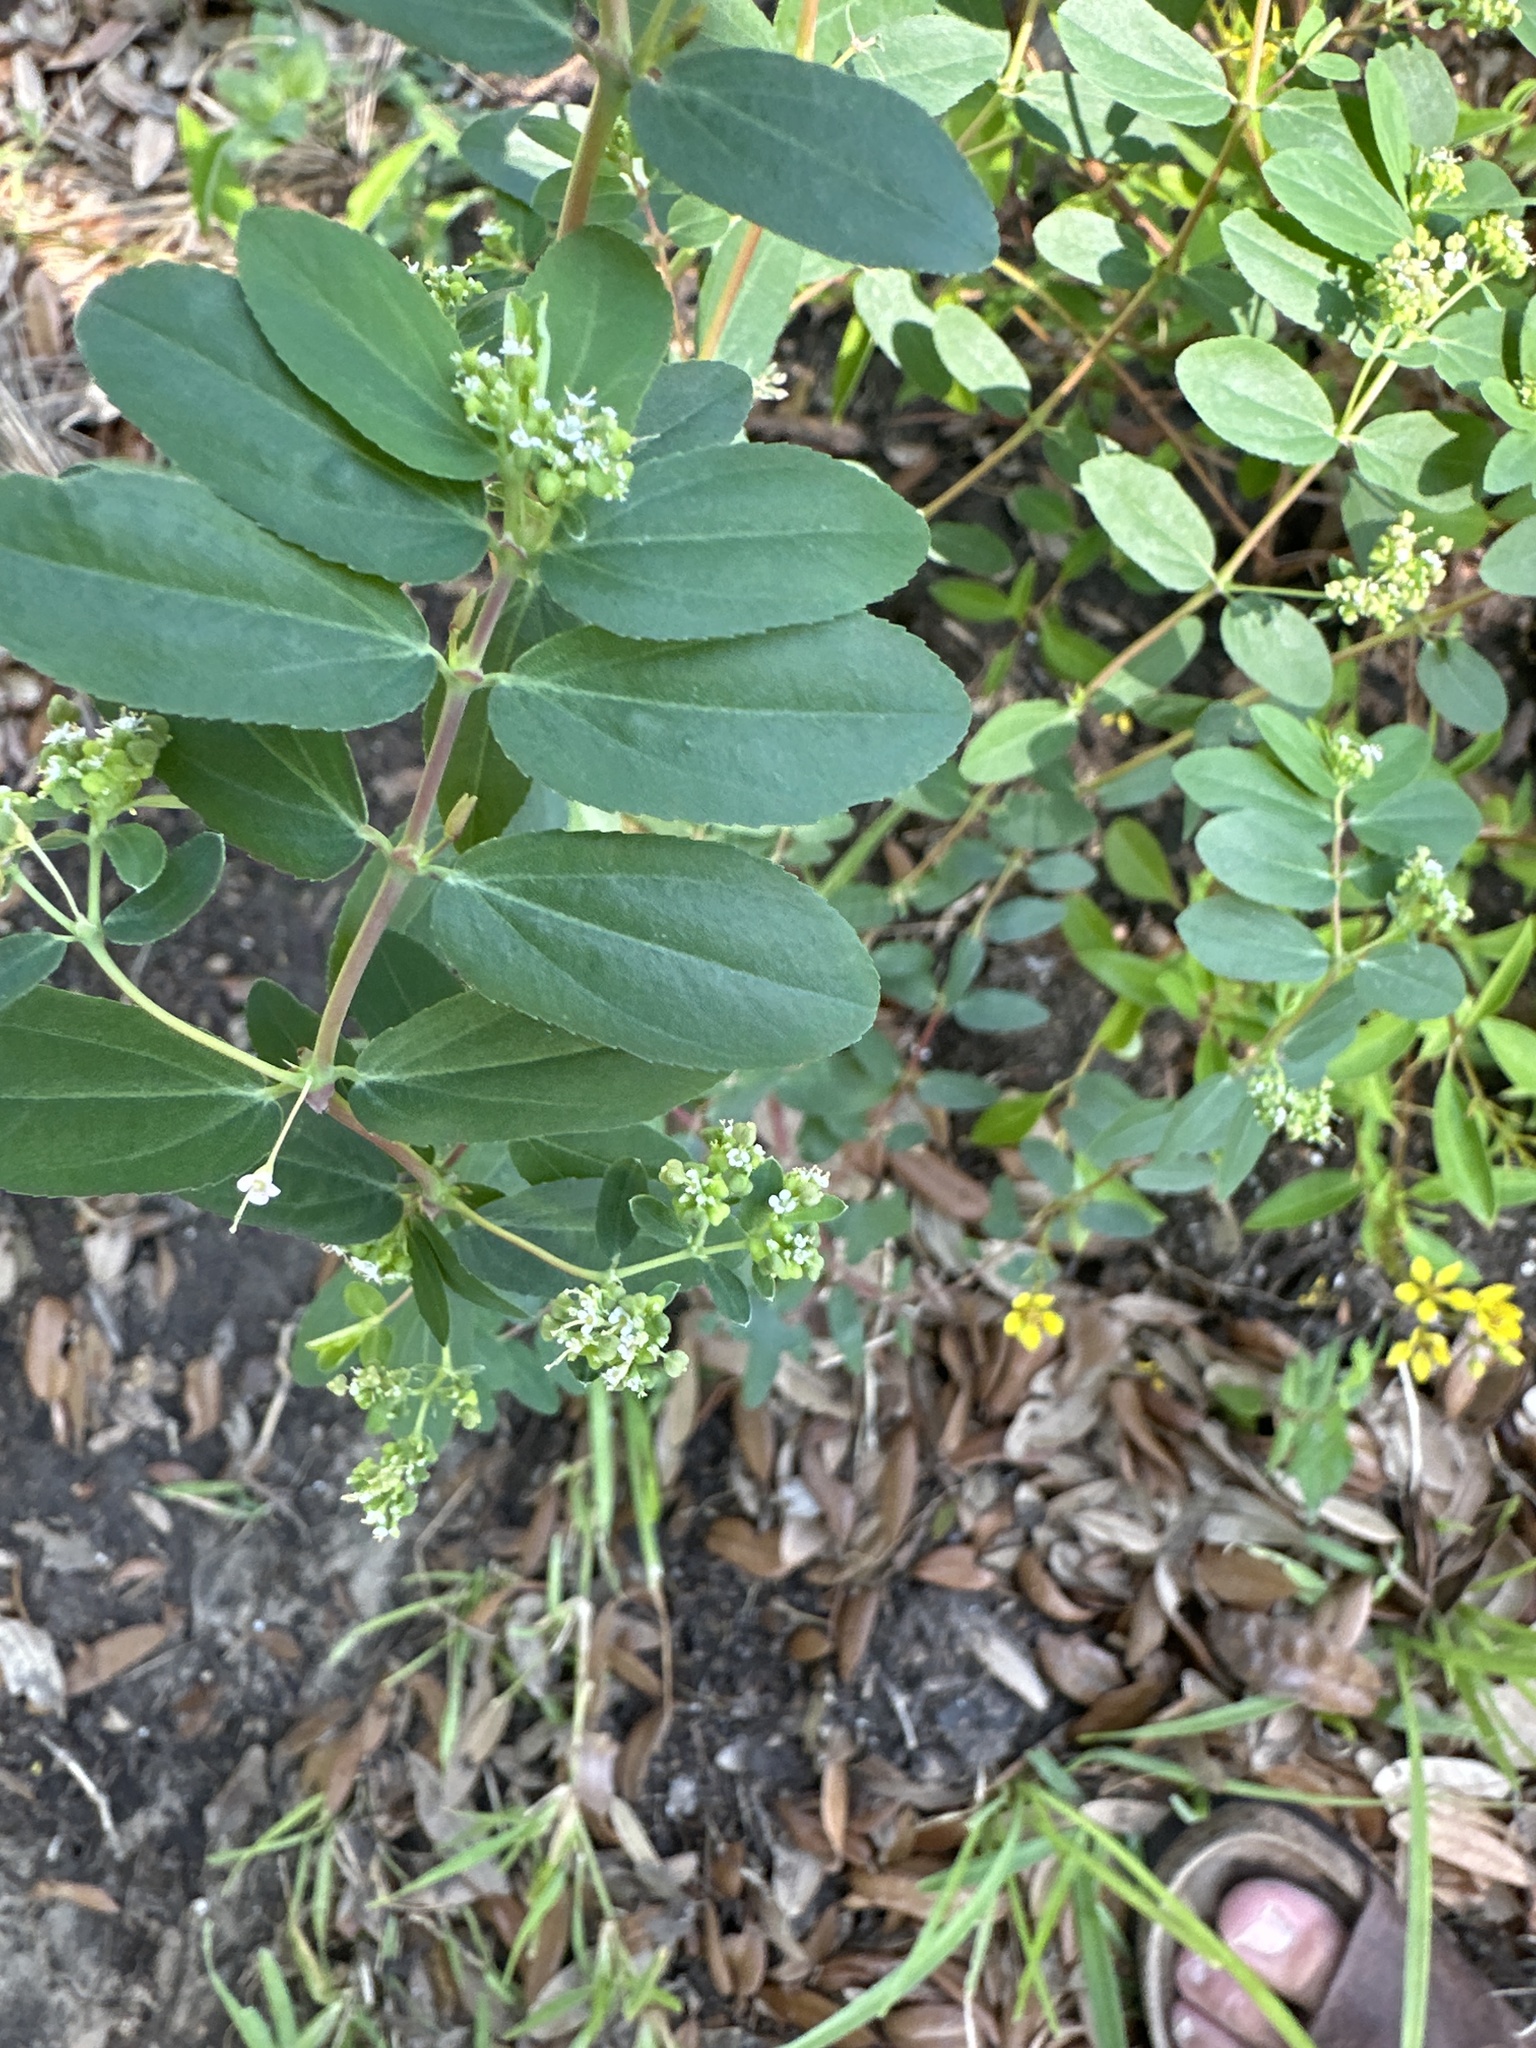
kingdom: Plantae
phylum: Tracheophyta
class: Magnoliopsida
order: Malpighiales
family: Euphorbiaceae
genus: Euphorbia
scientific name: Euphorbia hypericifolia
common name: Graceful sandmat
